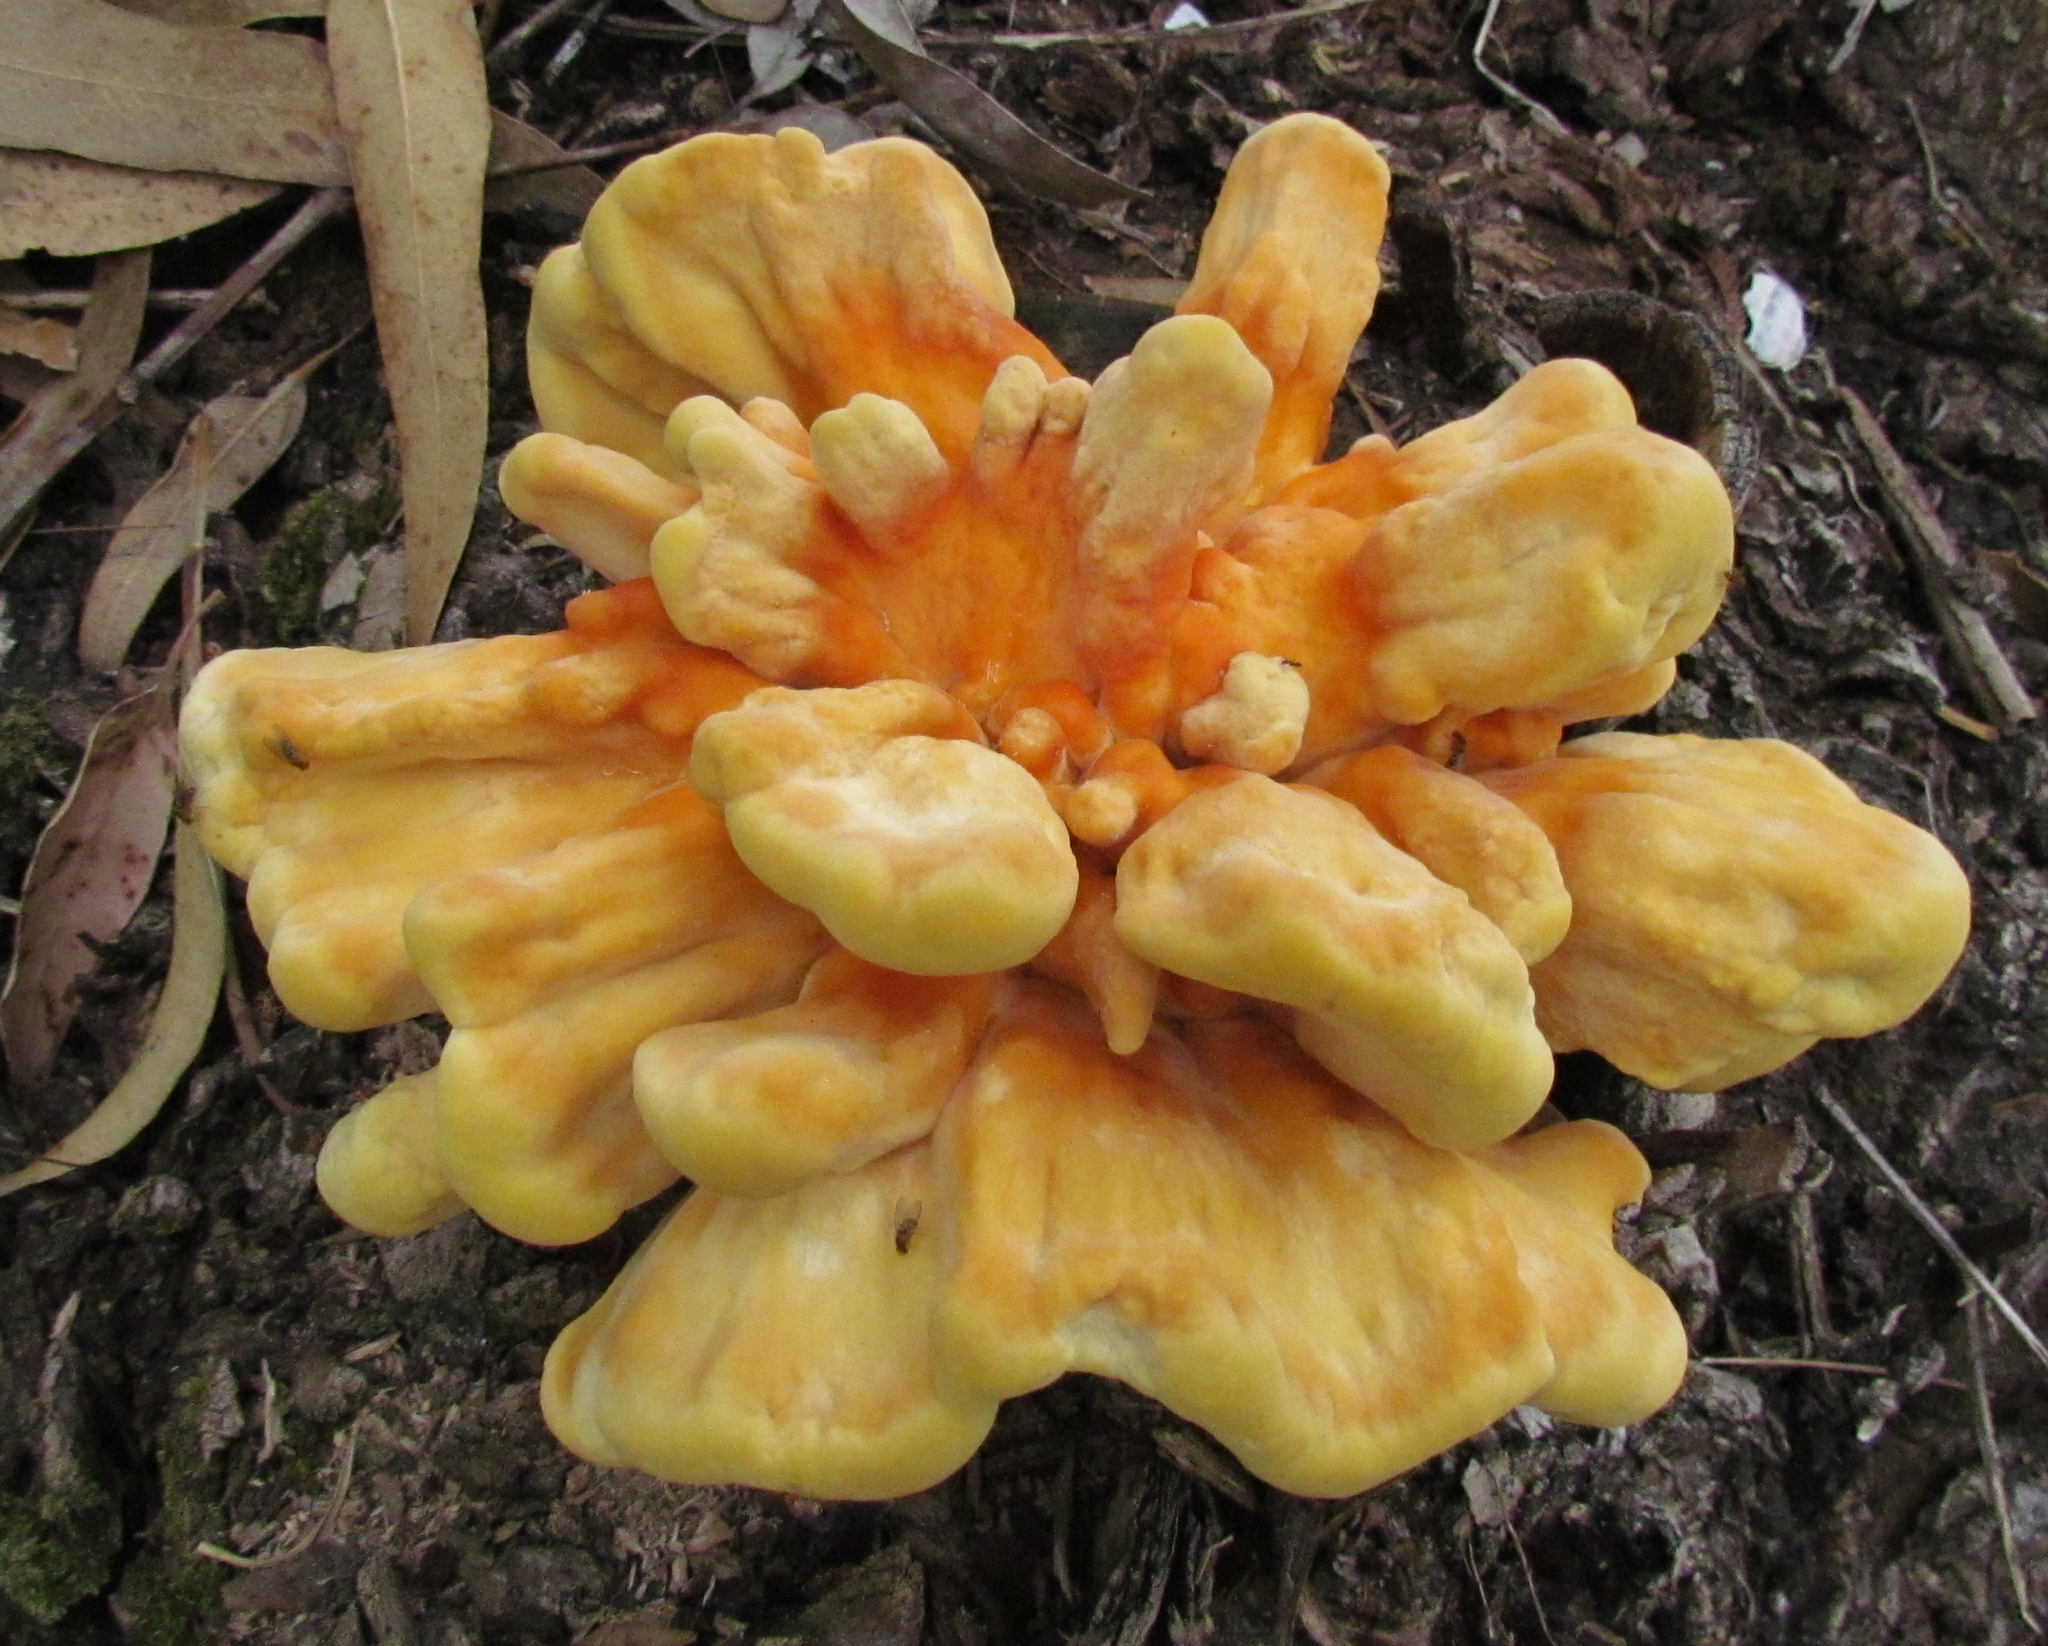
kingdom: Fungi
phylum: Basidiomycota
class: Agaricomycetes
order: Polyporales
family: Laetiporaceae
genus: Laetiporus
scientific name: Laetiporus sulphureus
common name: Chicken of the woods
